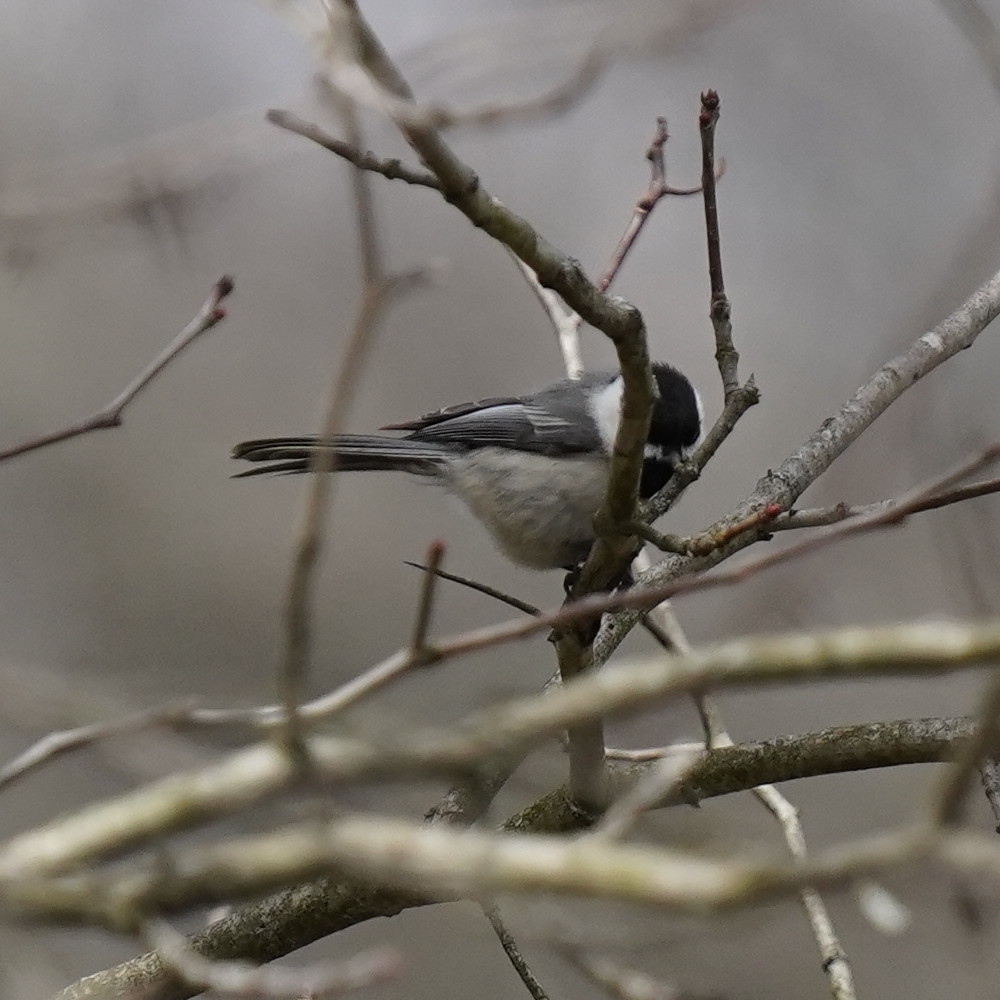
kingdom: Animalia
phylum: Chordata
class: Aves
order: Passeriformes
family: Paridae
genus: Poecile
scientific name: Poecile atricapillus
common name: Black-capped chickadee
